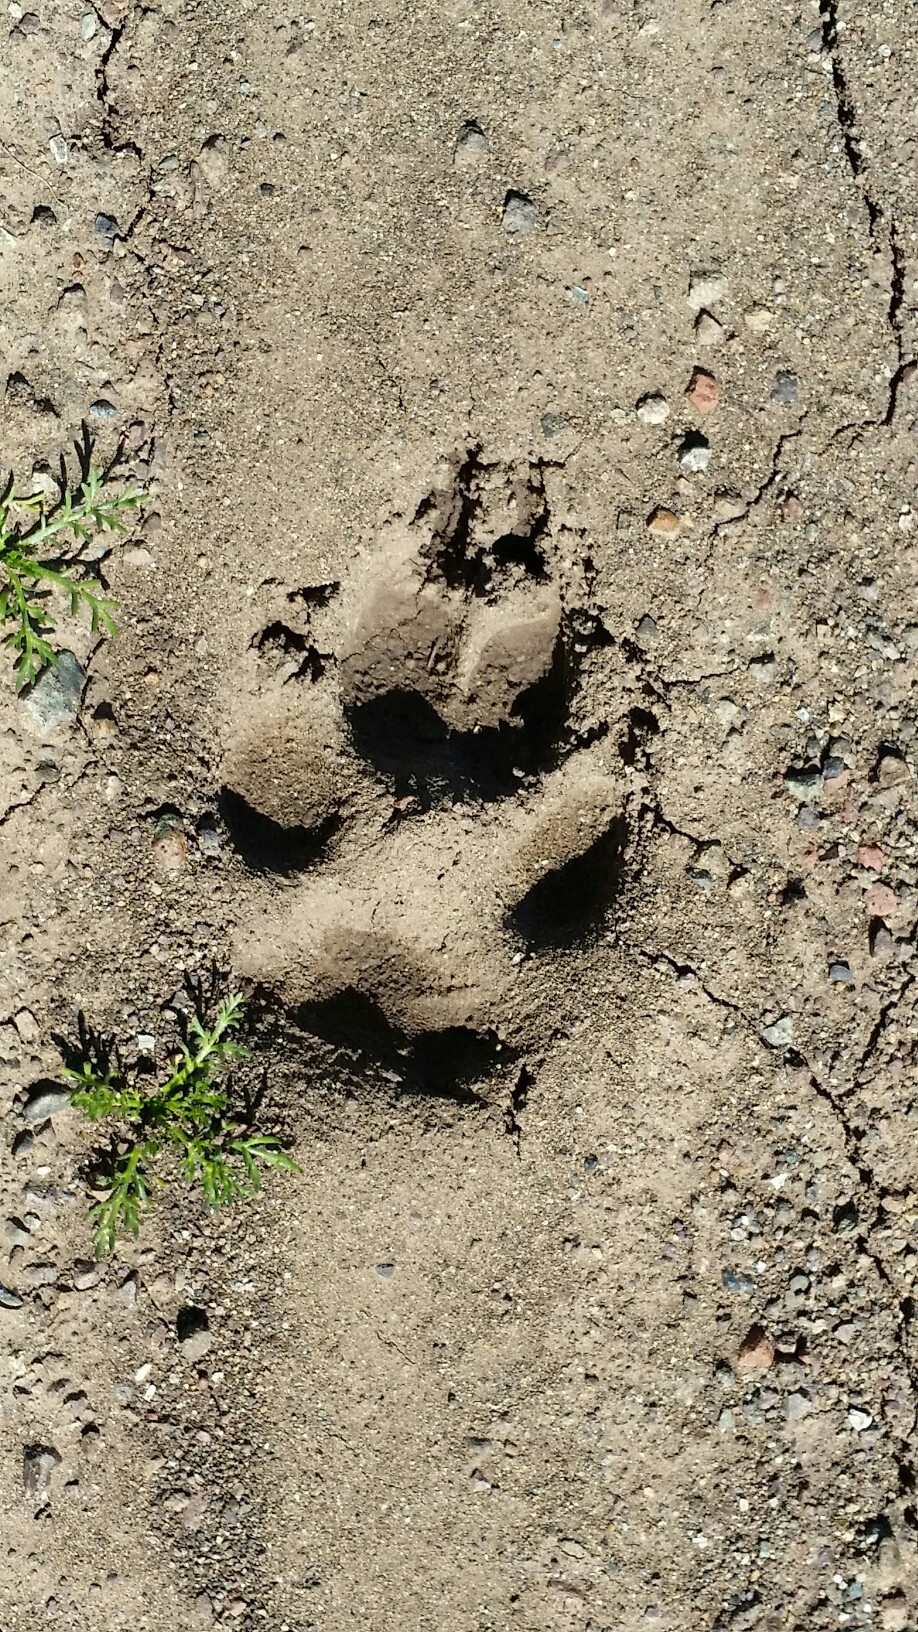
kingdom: Animalia
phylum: Chordata
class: Mammalia
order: Carnivora
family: Canidae
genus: Canis
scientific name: Canis latrans
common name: Coyote
